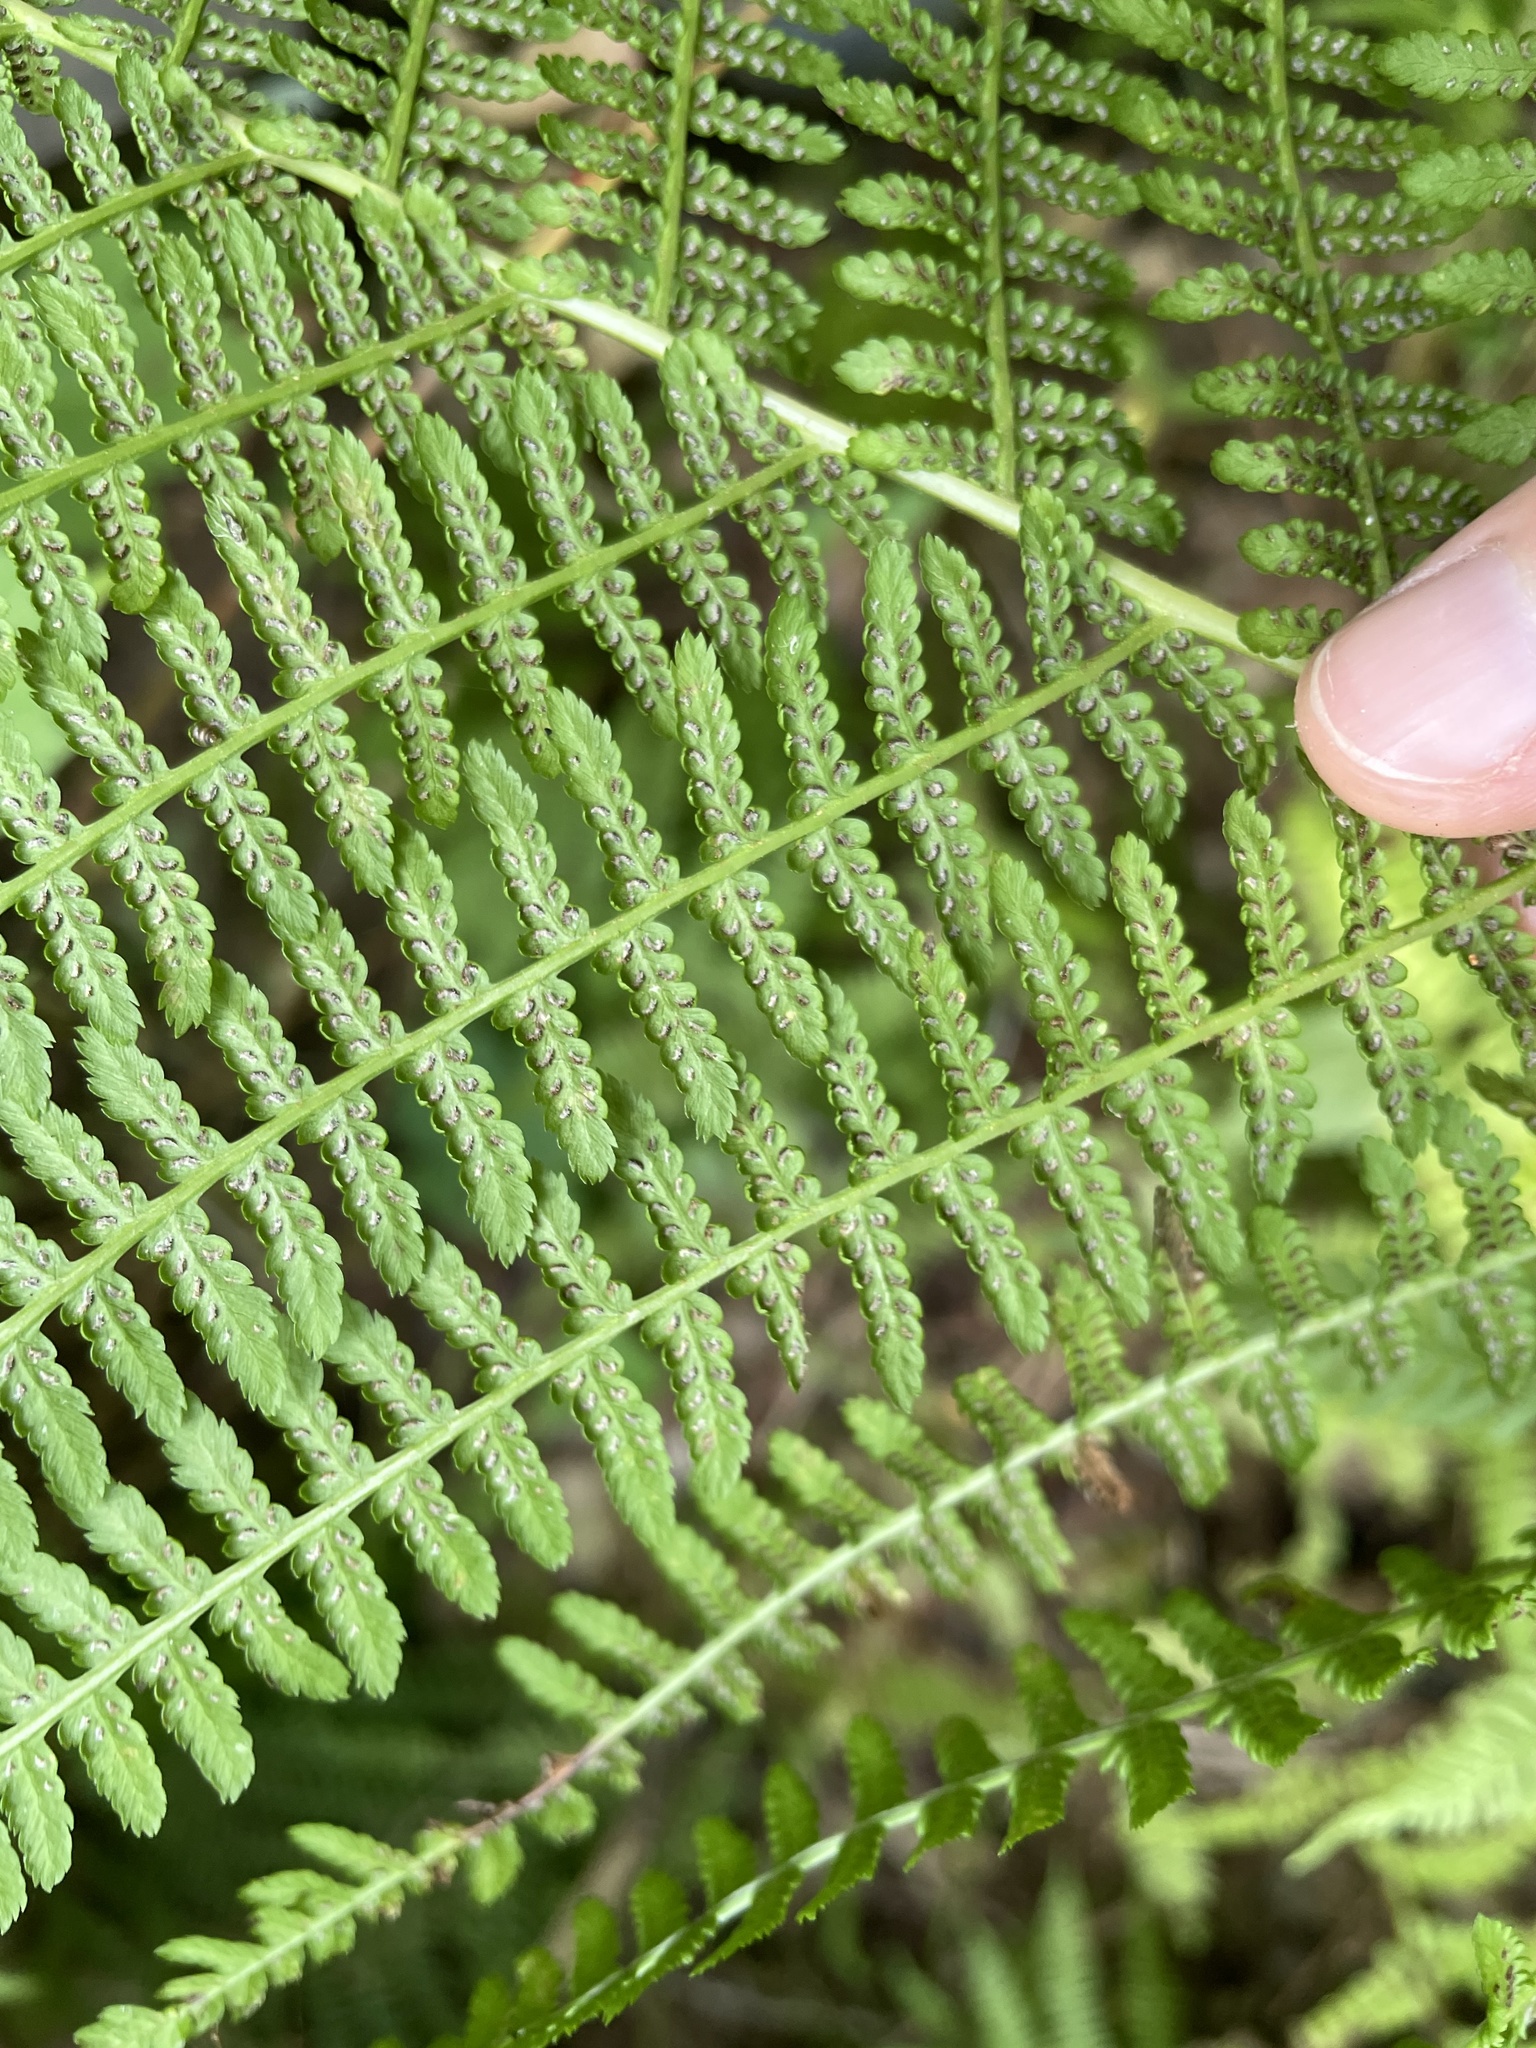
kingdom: Plantae
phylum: Tracheophyta
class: Polypodiopsida
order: Polypodiales
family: Athyriaceae
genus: Athyrium
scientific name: Athyrium angustum
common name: Northern lady fern
